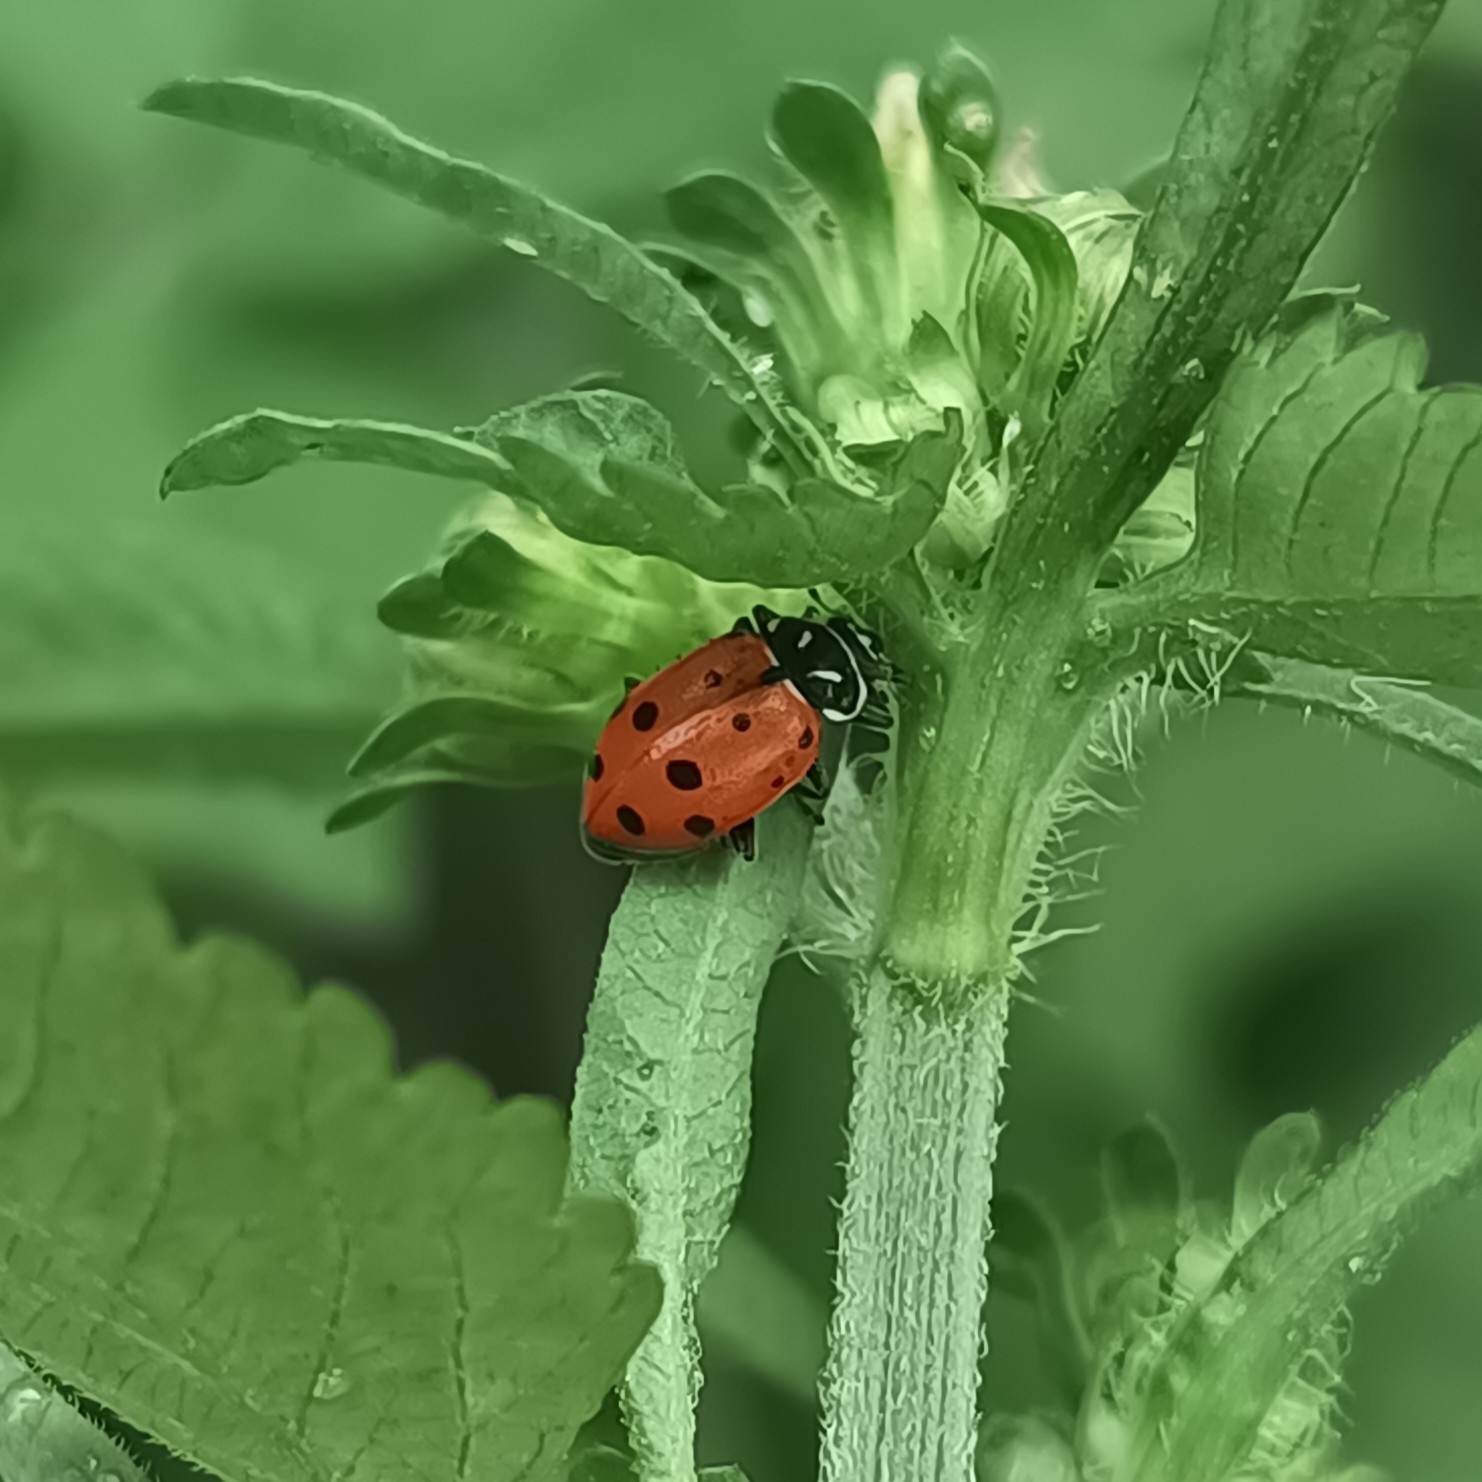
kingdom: Animalia
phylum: Arthropoda
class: Insecta
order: Coleoptera
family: Coccinellidae
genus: Hippodamia
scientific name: Hippodamia convergens
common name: Convergent lady beetle
